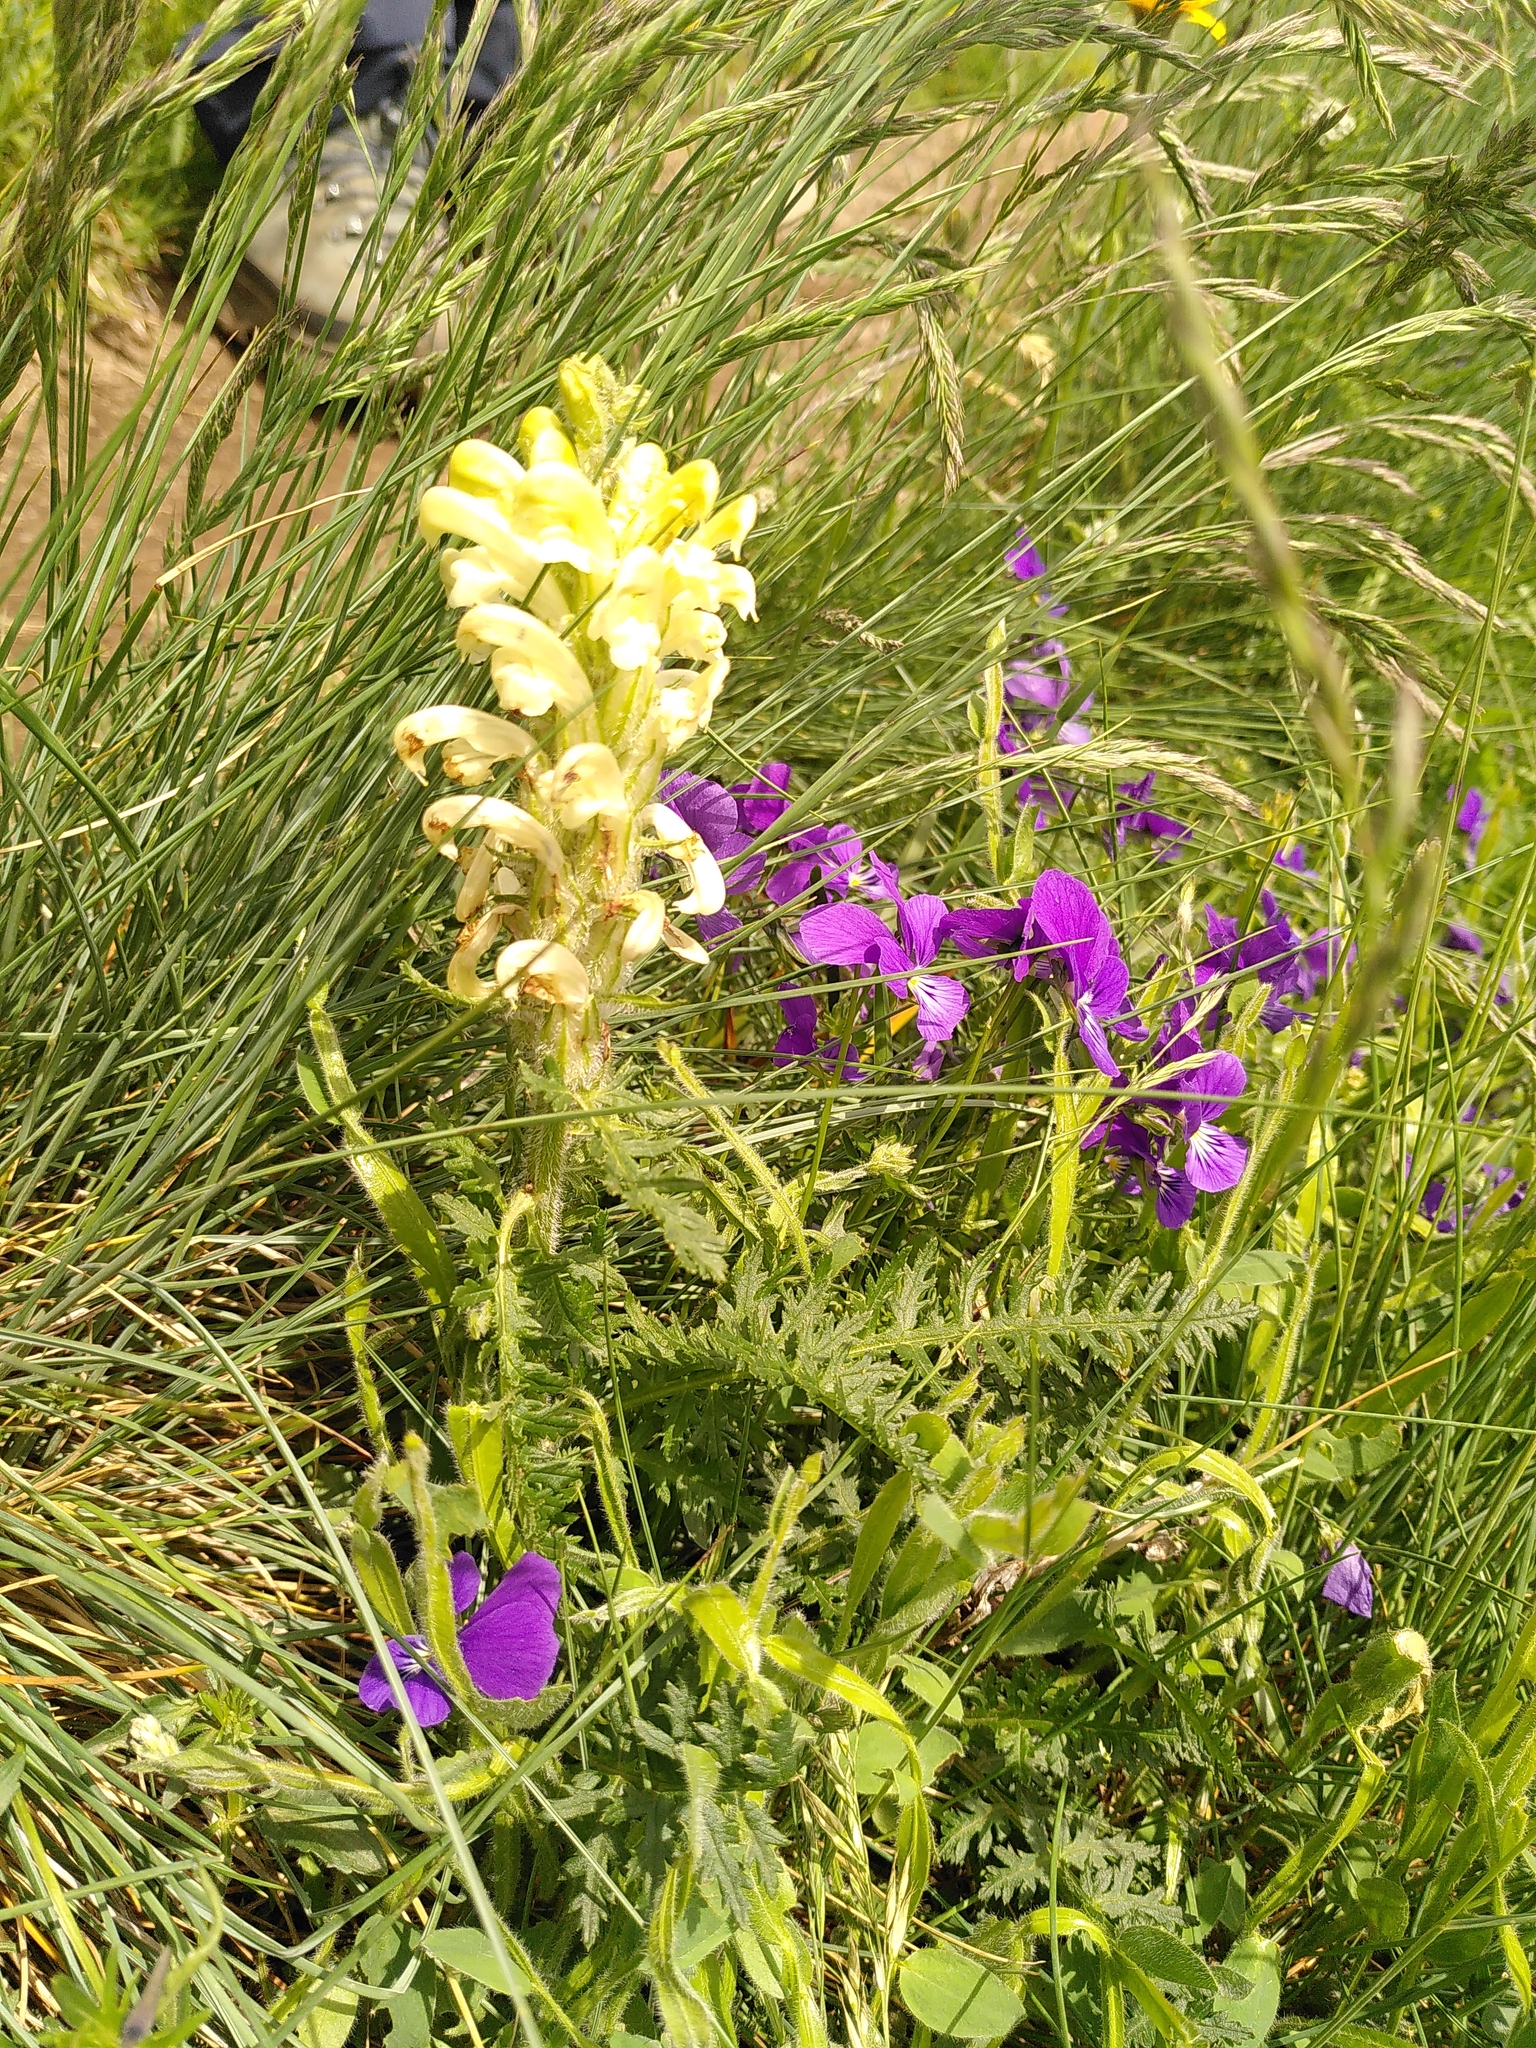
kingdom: Plantae
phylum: Tracheophyta
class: Magnoliopsida
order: Lamiales
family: Orobanchaceae
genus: Pedicularis
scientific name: Pedicularis comosa
